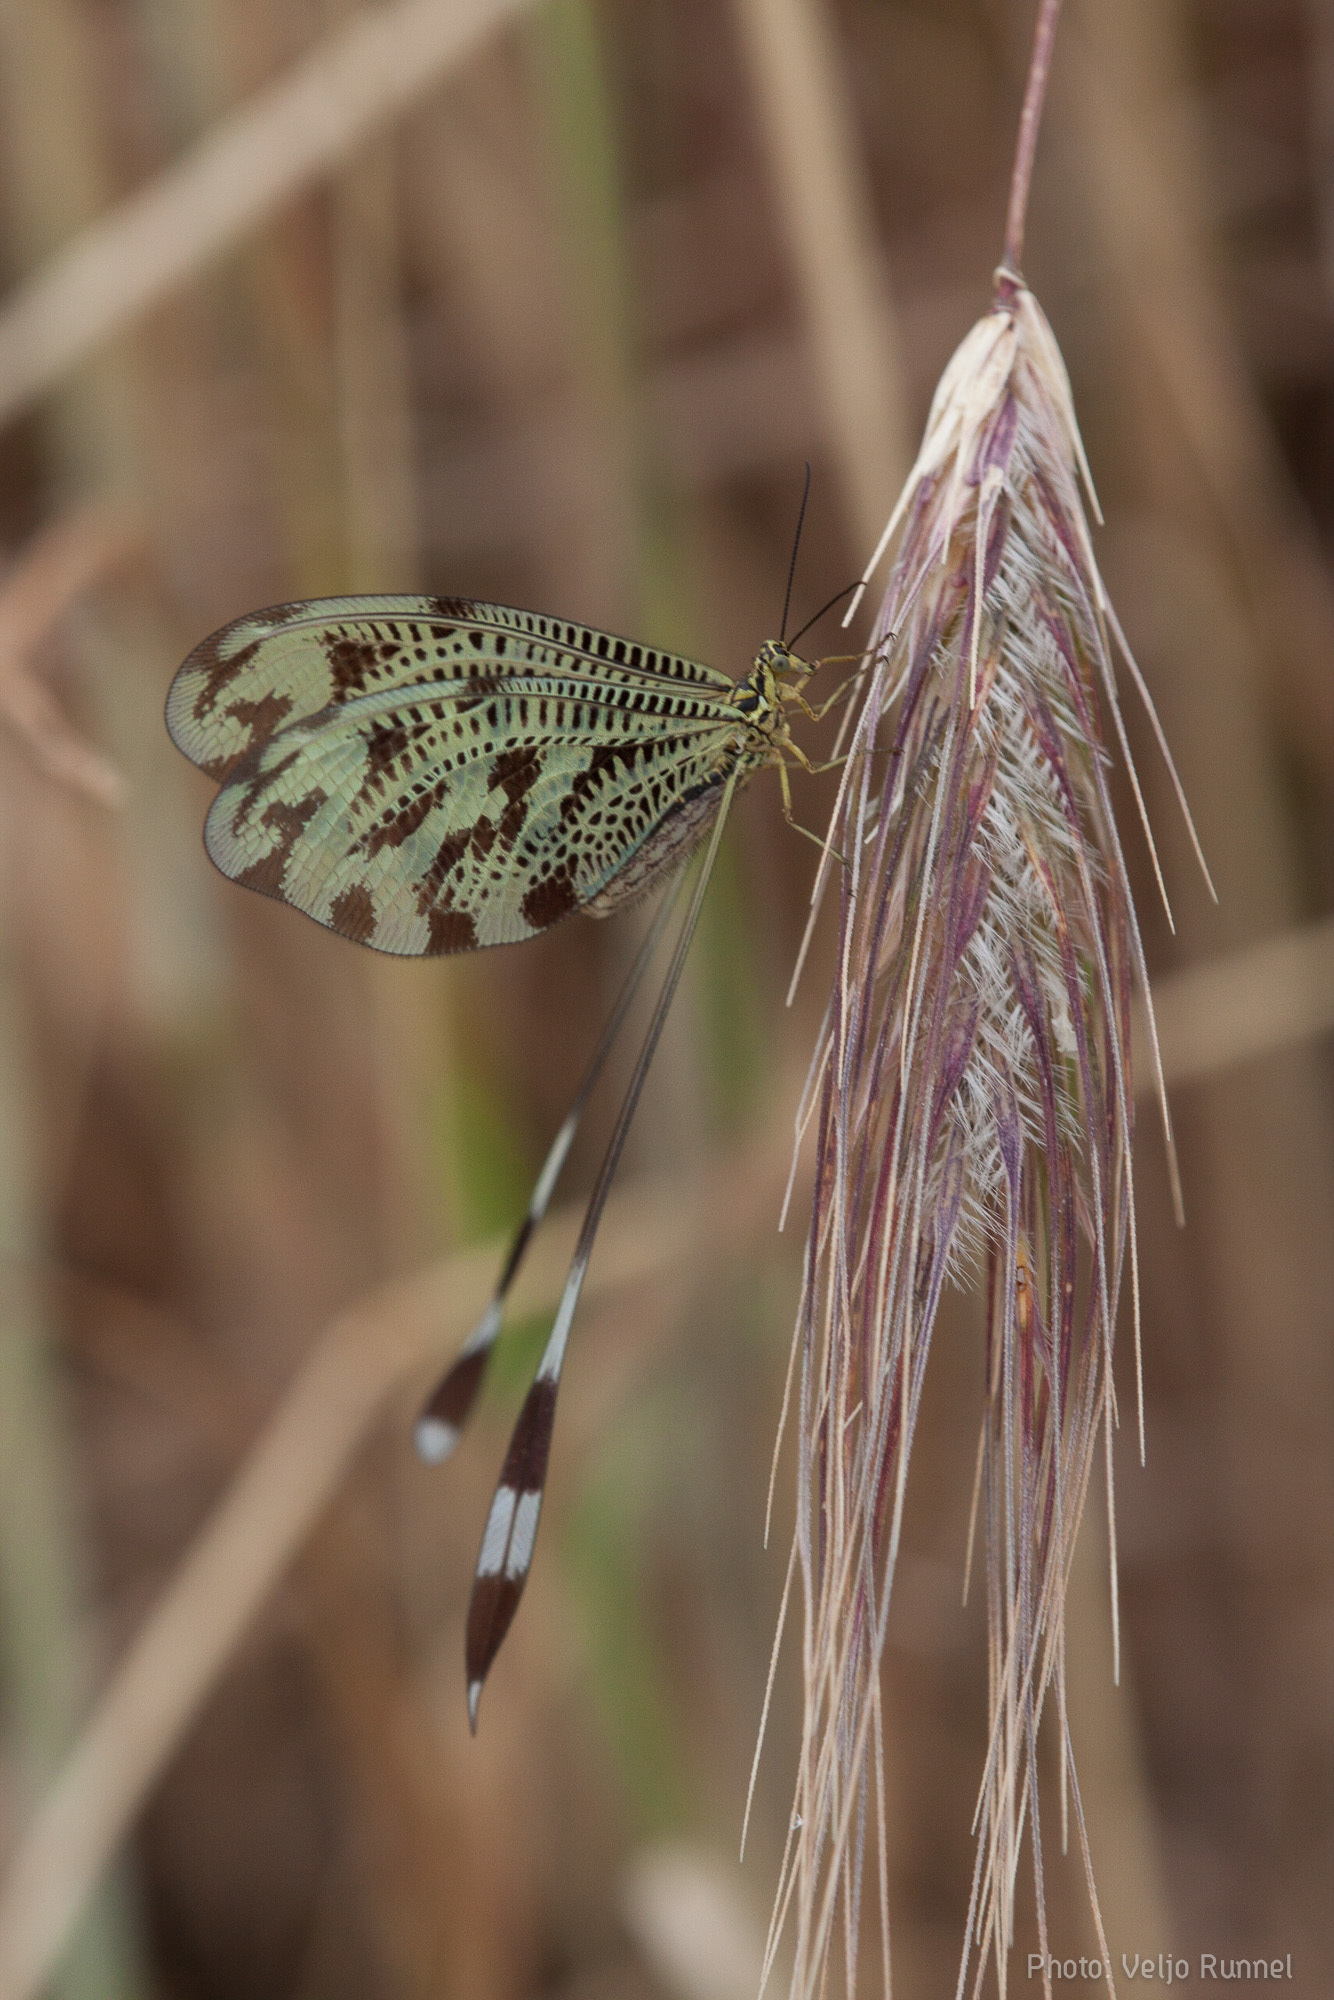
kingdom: Animalia
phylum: Arthropoda
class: Insecta
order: Neuroptera
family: Nemopteridae
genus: Nemoptera
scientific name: Nemoptera coa
